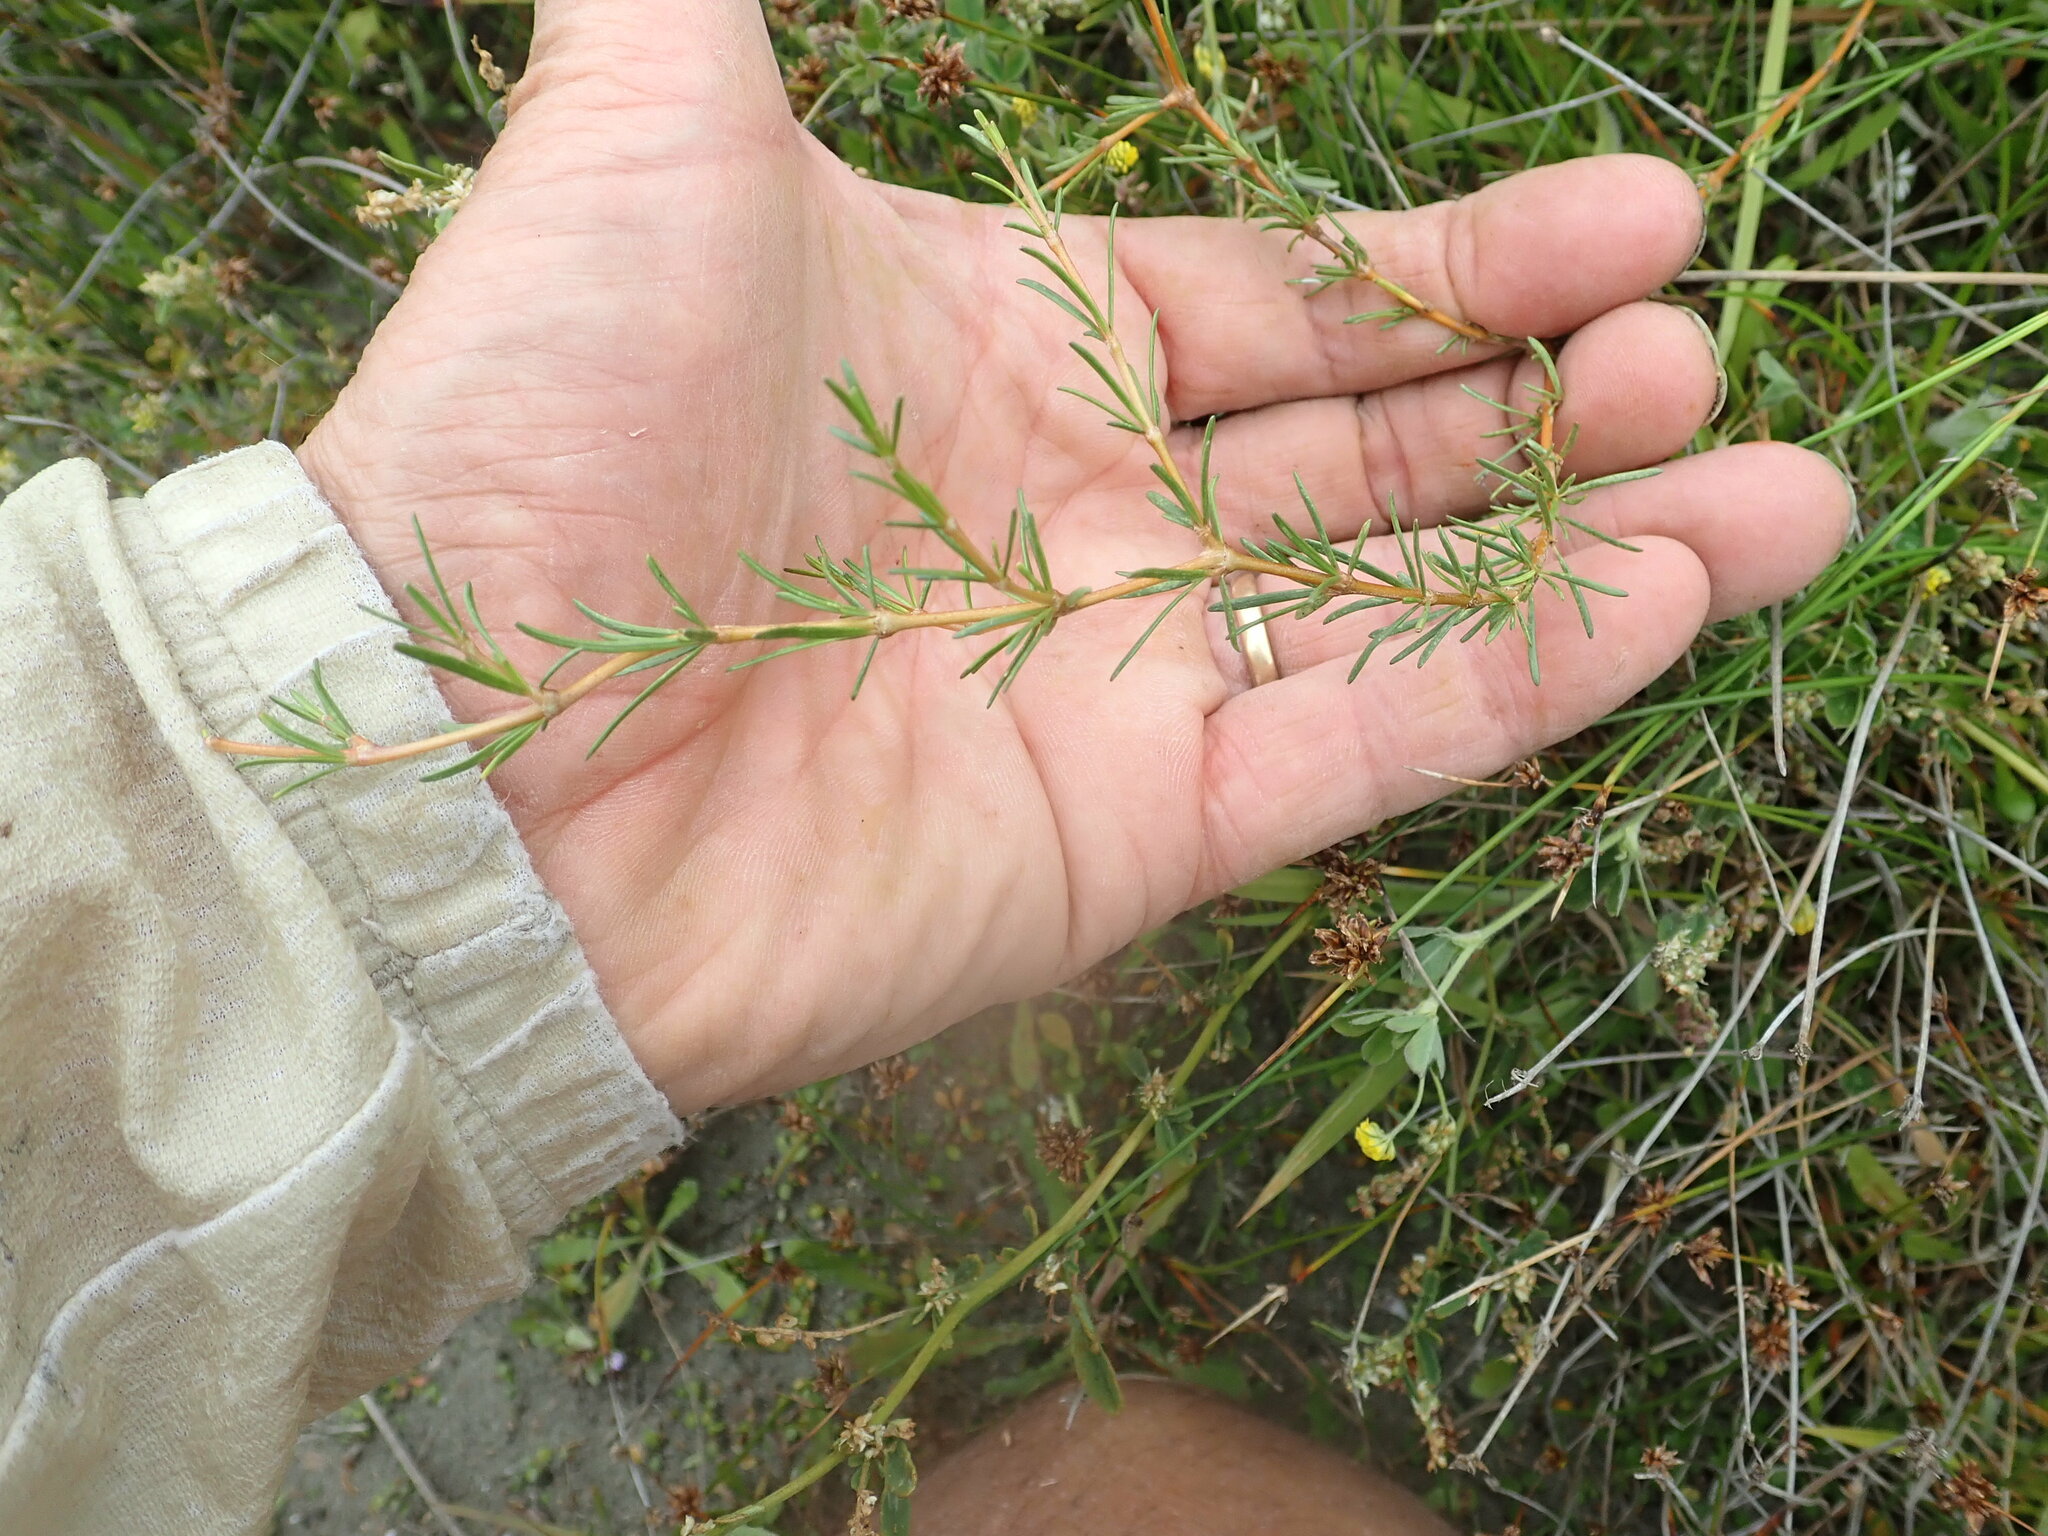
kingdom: Plantae
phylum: Tracheophyta
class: Magnoliopsida
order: Gentianales
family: Rubiaceae
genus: Coprosma
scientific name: Coprosma acerosa
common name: Sand coprosma
